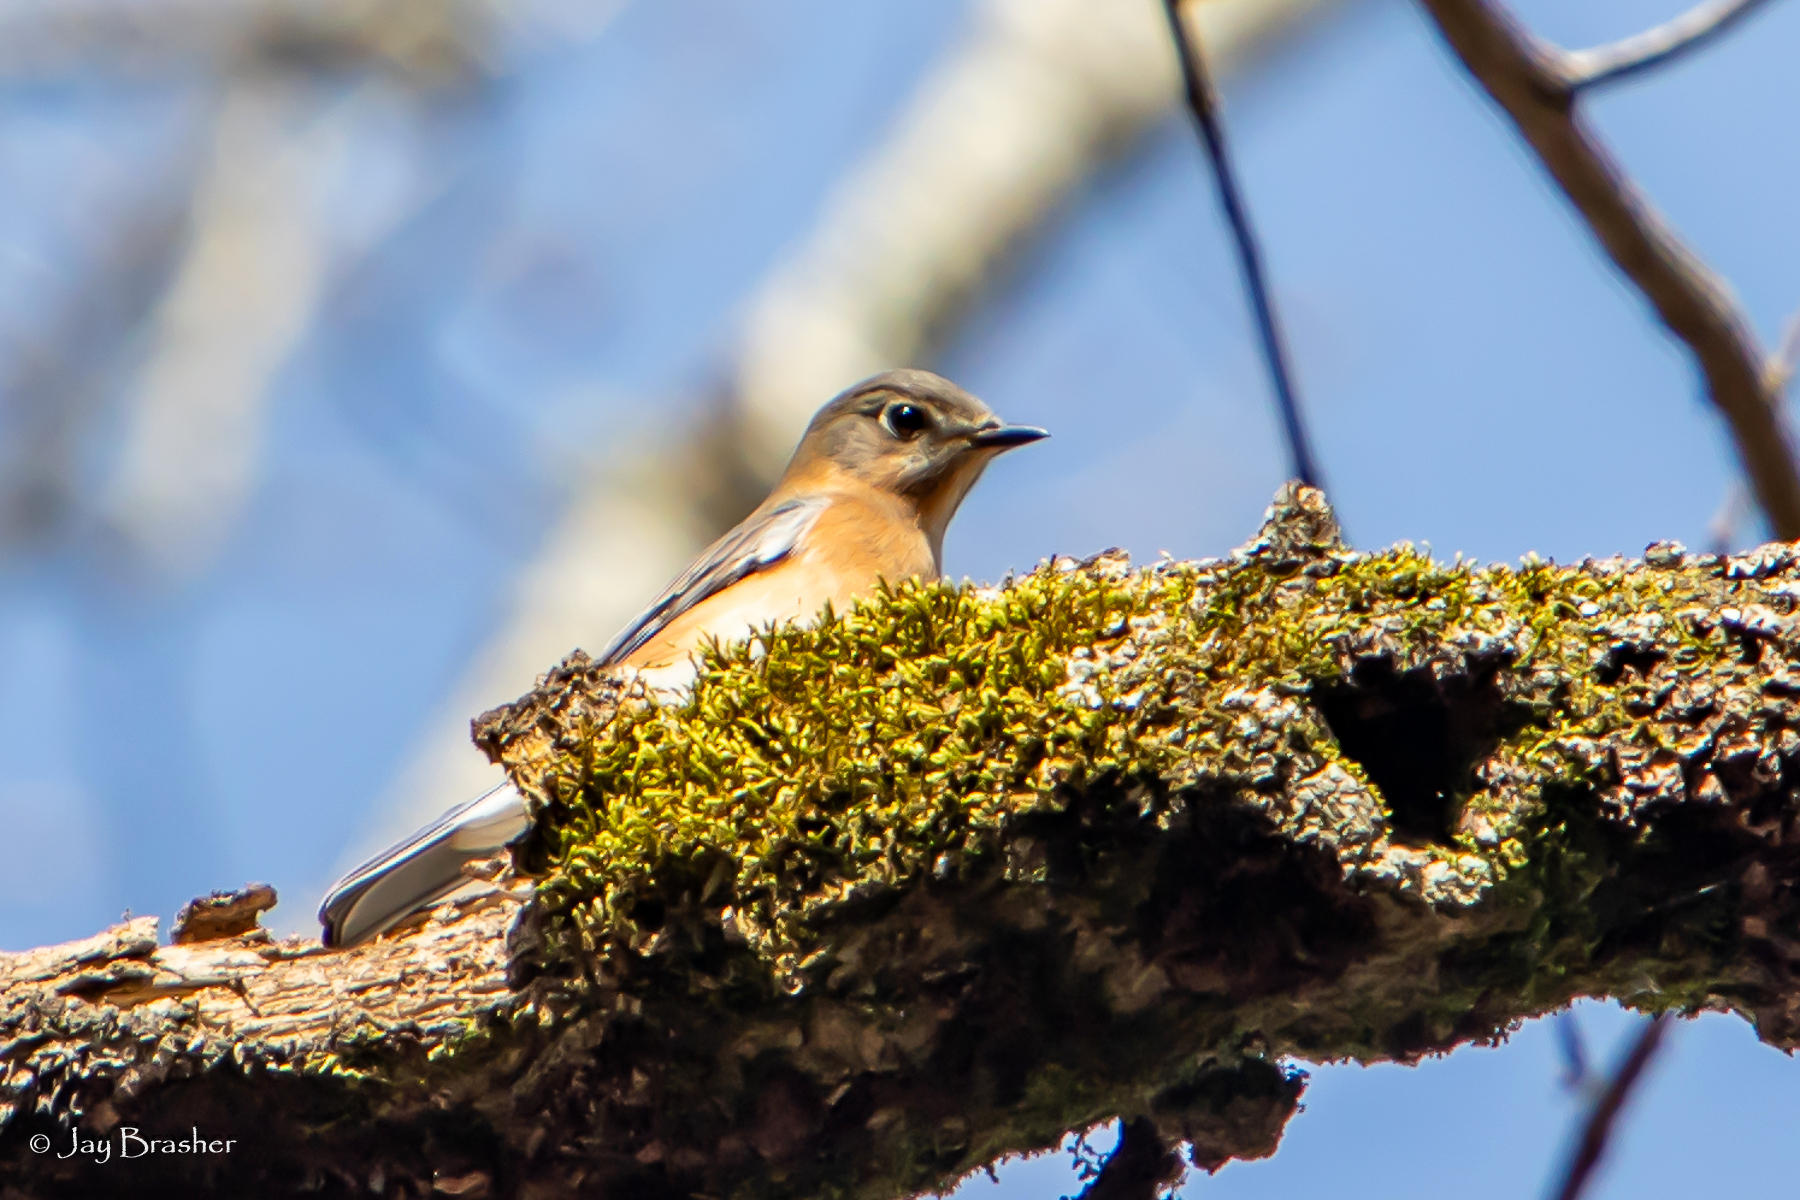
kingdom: Animalia
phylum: Chordata
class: Aves
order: Passeriformes
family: Turdidae
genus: Sialia
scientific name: Sialia sialis
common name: Eastern bluebird
